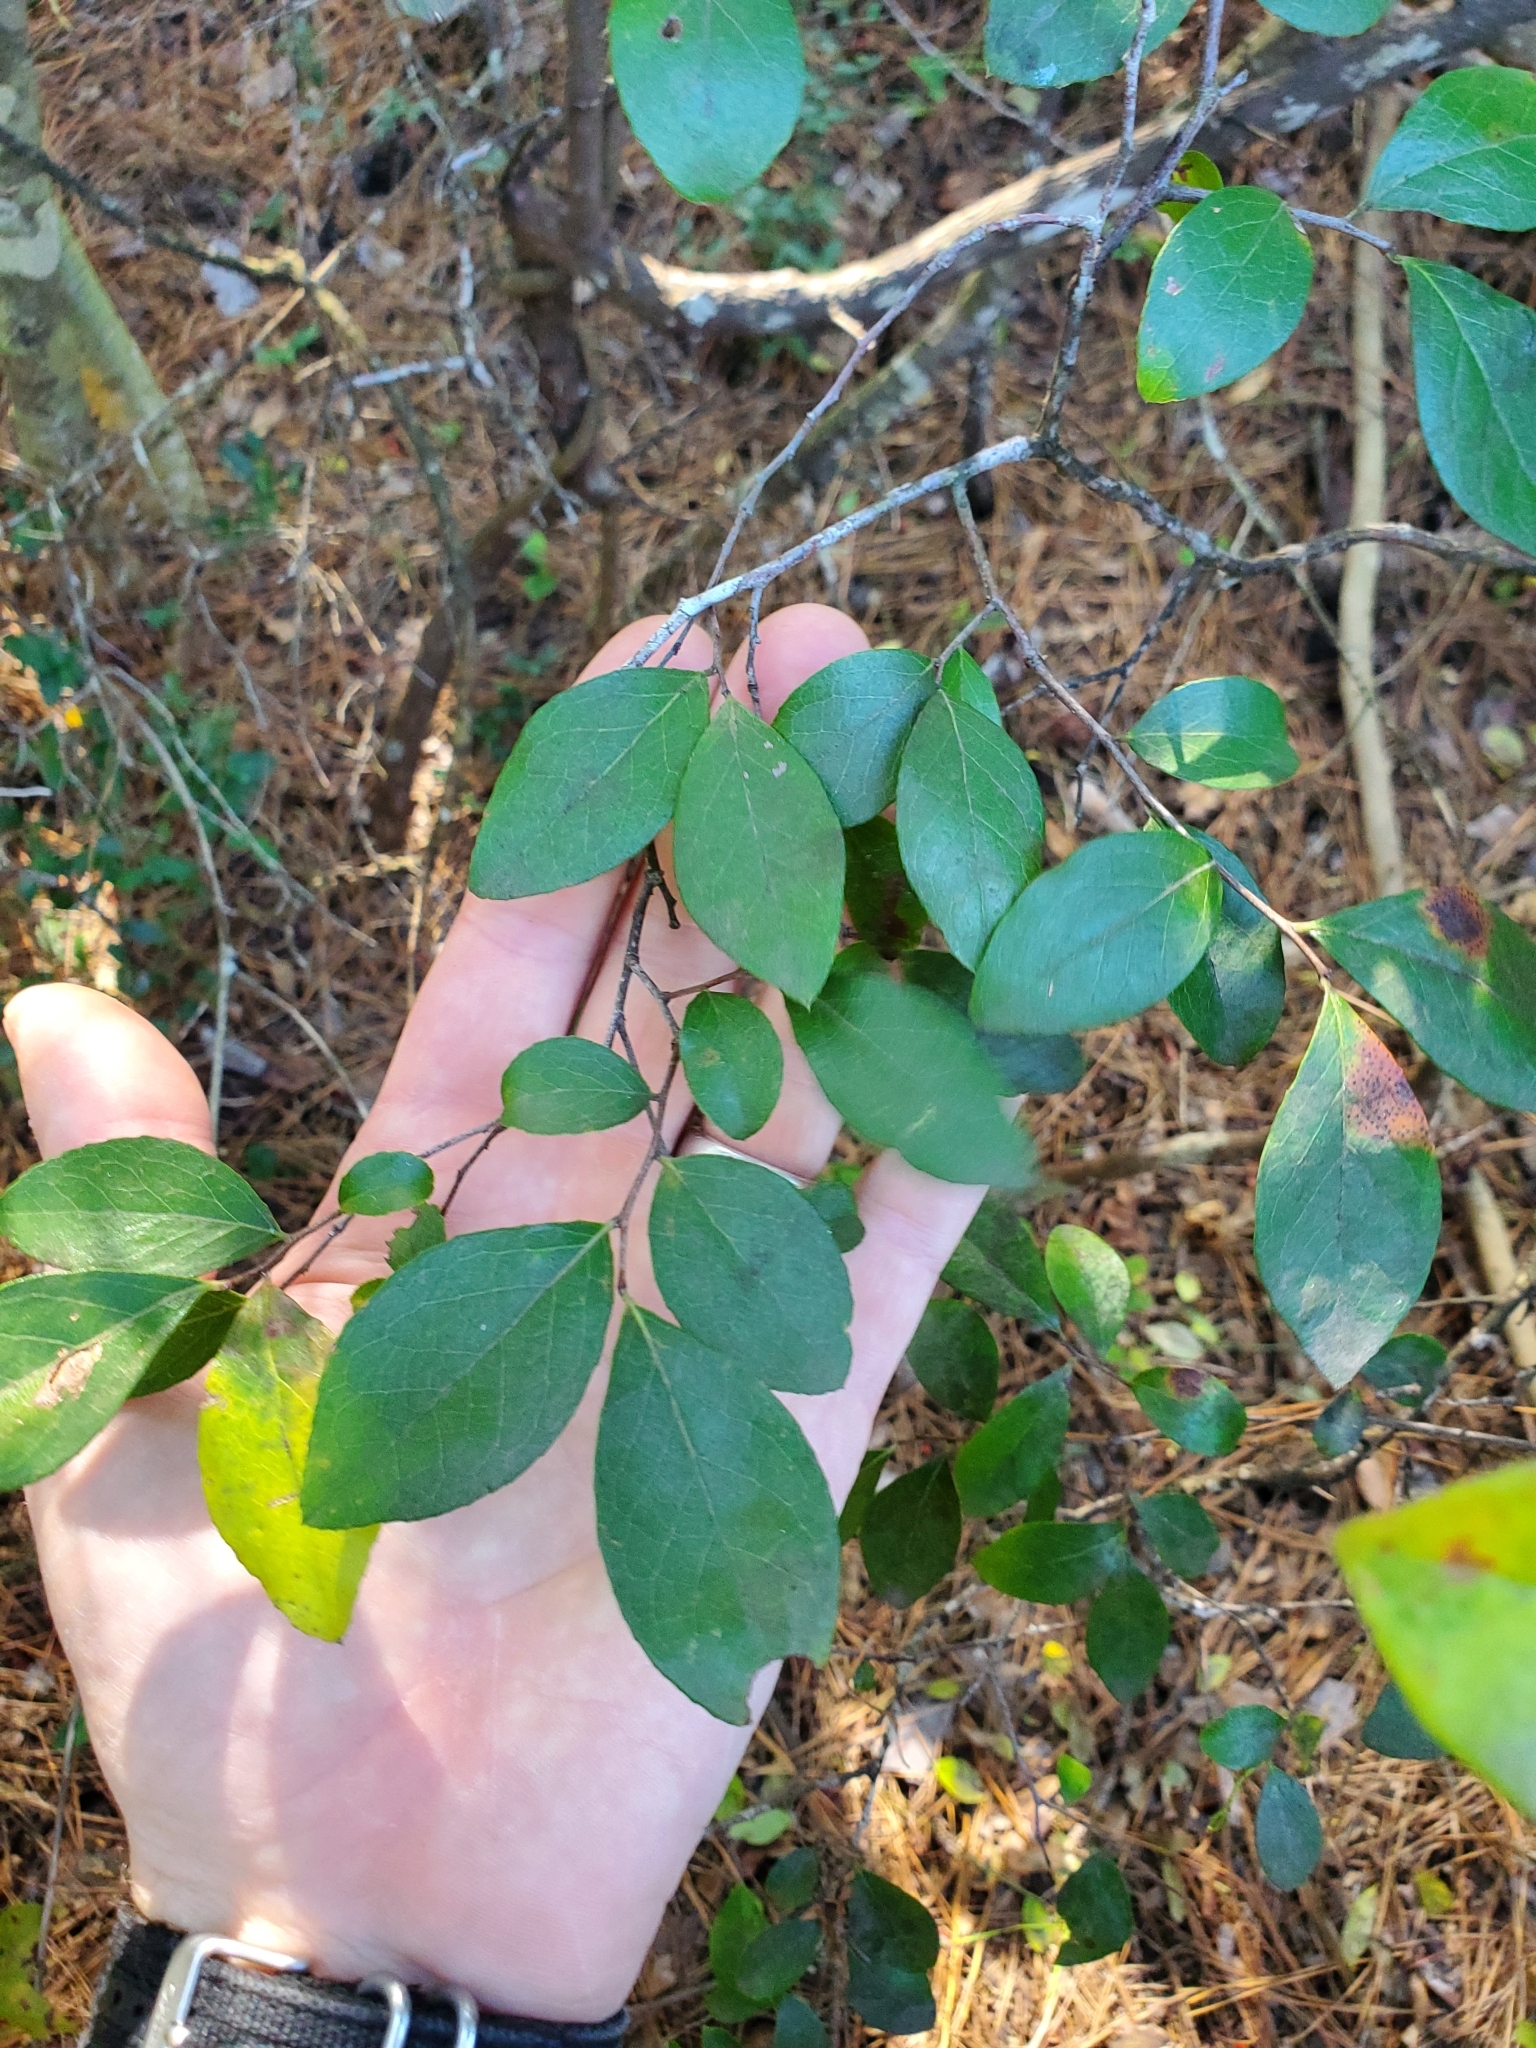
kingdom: Plantae
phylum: Tracheophyta
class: Magnoliopsida
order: Aquifoliales
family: Aquifoliaceae
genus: Ilex
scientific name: Ilex vomitoria
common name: Yaupon holly
